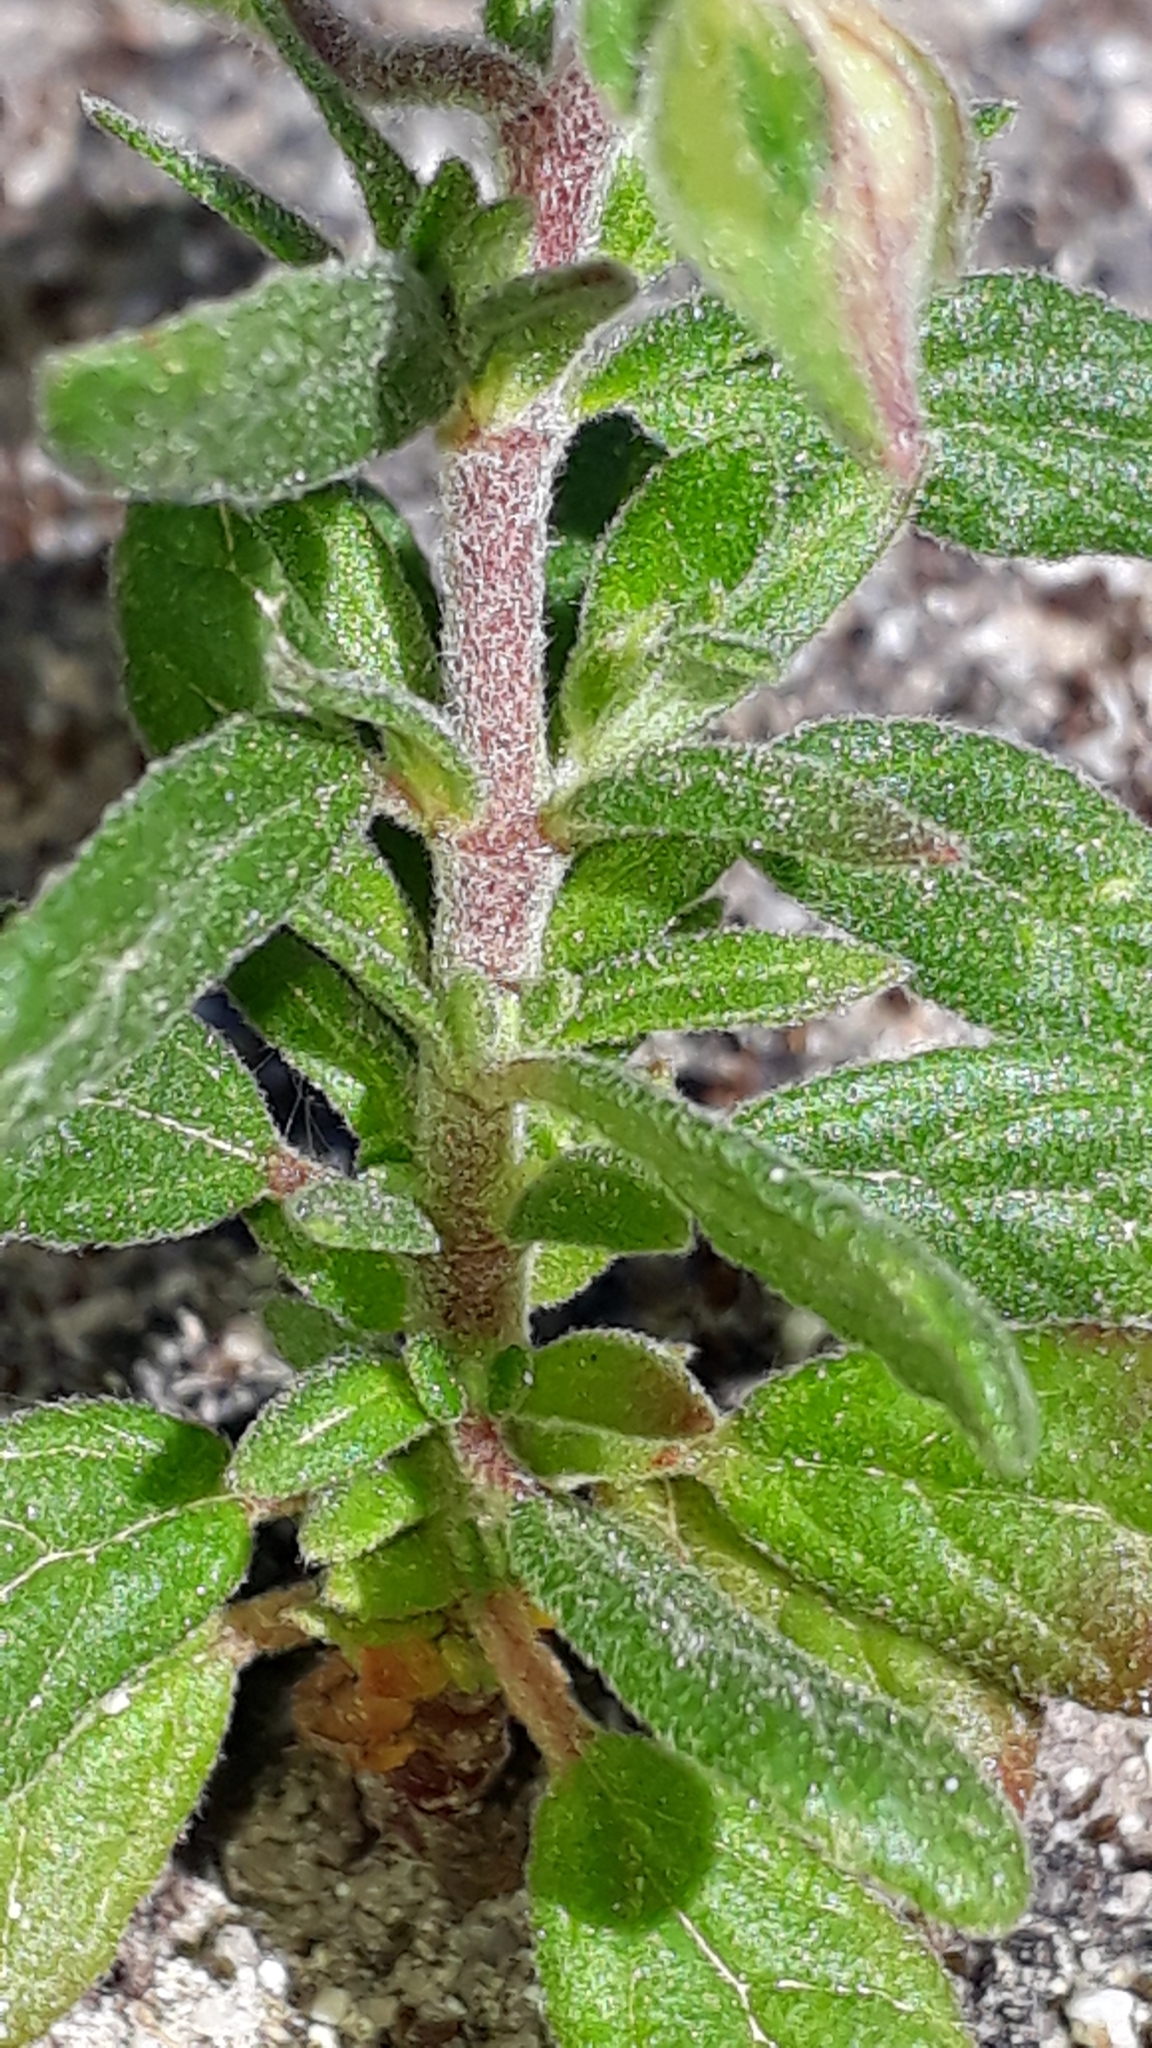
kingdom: Plantae
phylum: Tracheophyta
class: Magnoliopsida
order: Malvales
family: Cistaceae
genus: Helianthemum
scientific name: Helianthemum salicifolium
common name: Willowleaf frostweed
